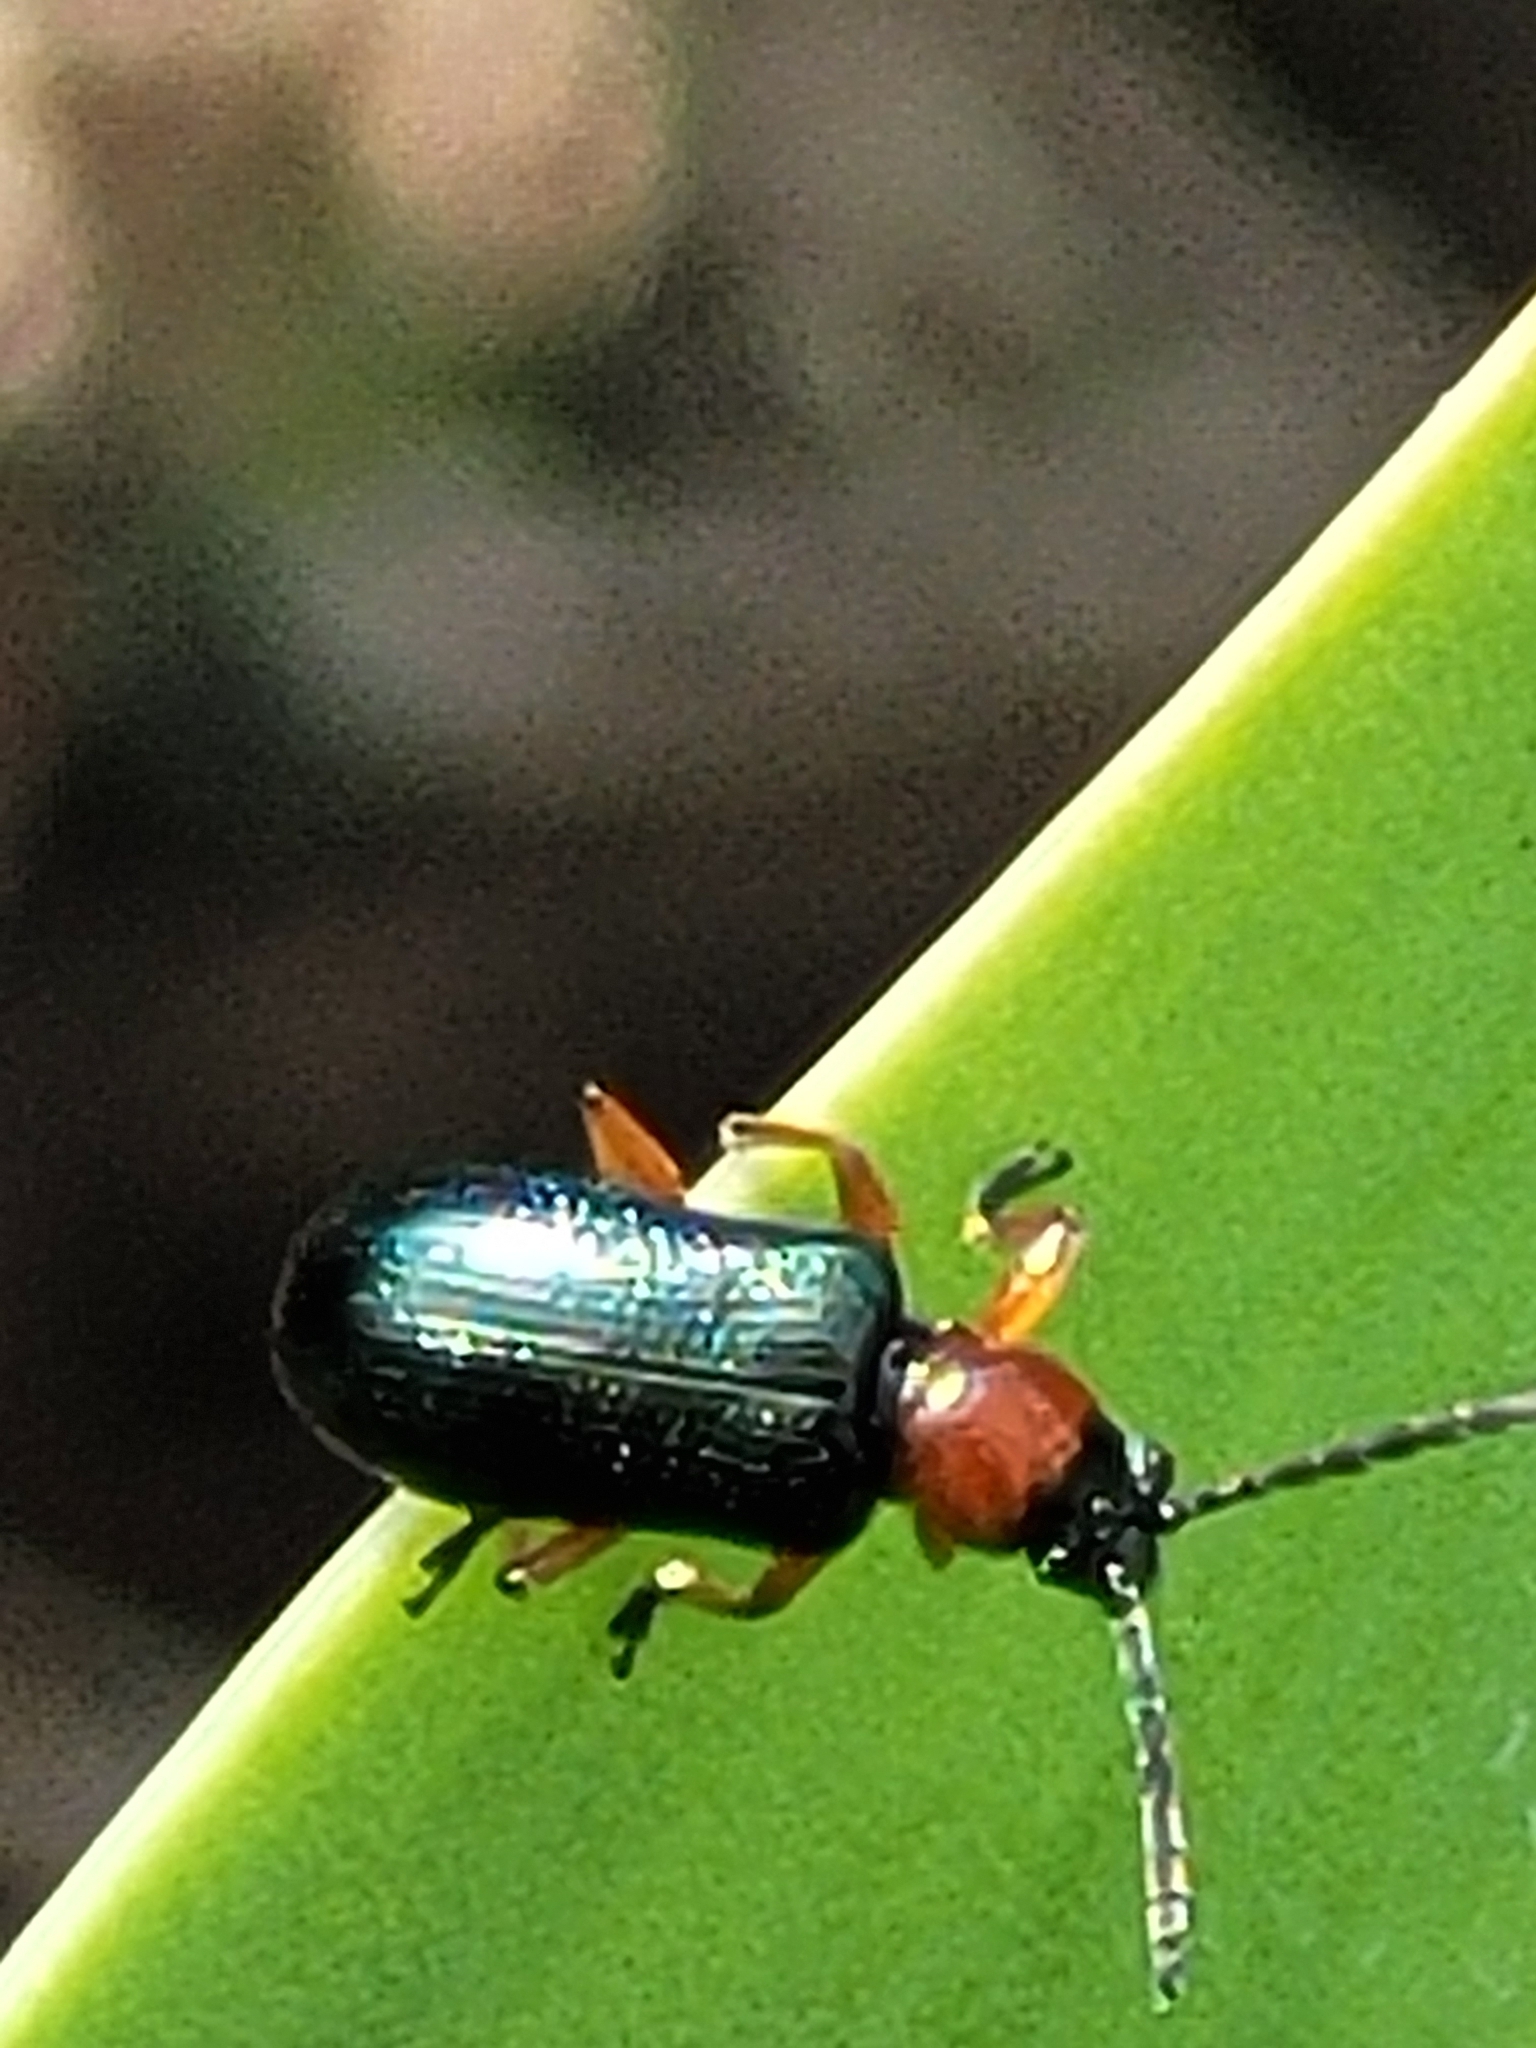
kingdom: Animalia
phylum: Arthropoda
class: Insecta
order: Coleoptera
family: Chrysomelidae
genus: Oulema
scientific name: Oulema melanopus
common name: Cereal leaf beetle
